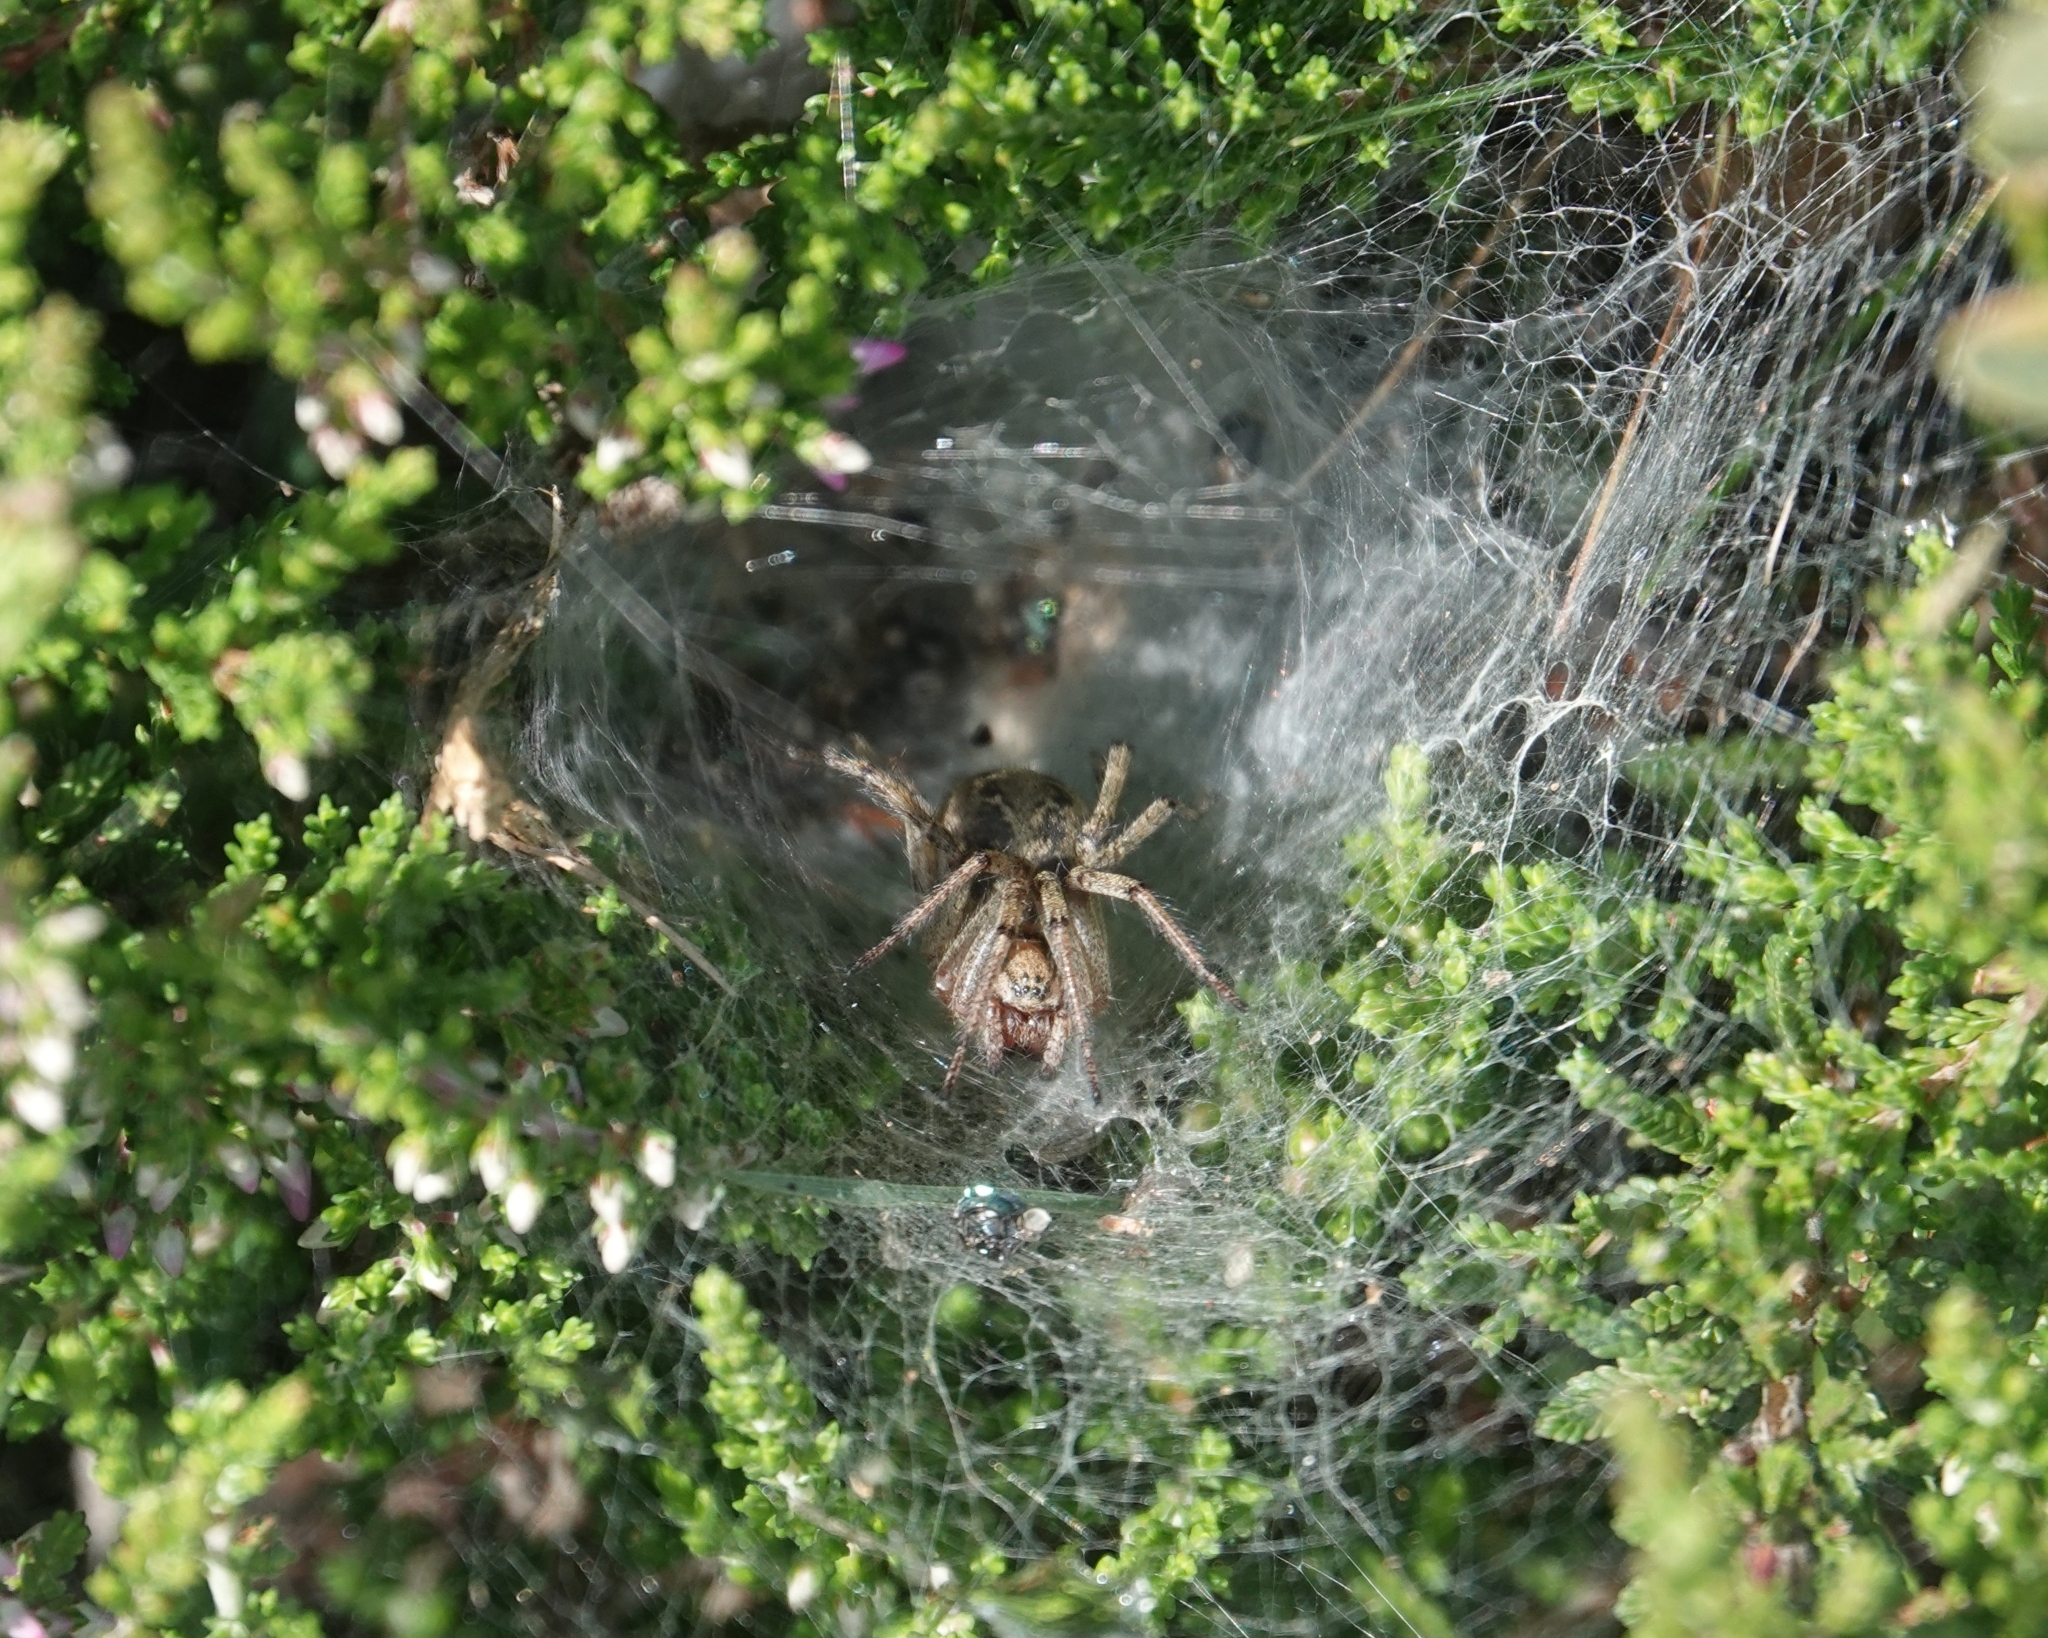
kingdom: Animalia
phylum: Arthropoda
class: Arachnida
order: Araneae
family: Agelenidae
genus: Agelena
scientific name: Agelena labyrinthica
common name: Labyrinth spider
